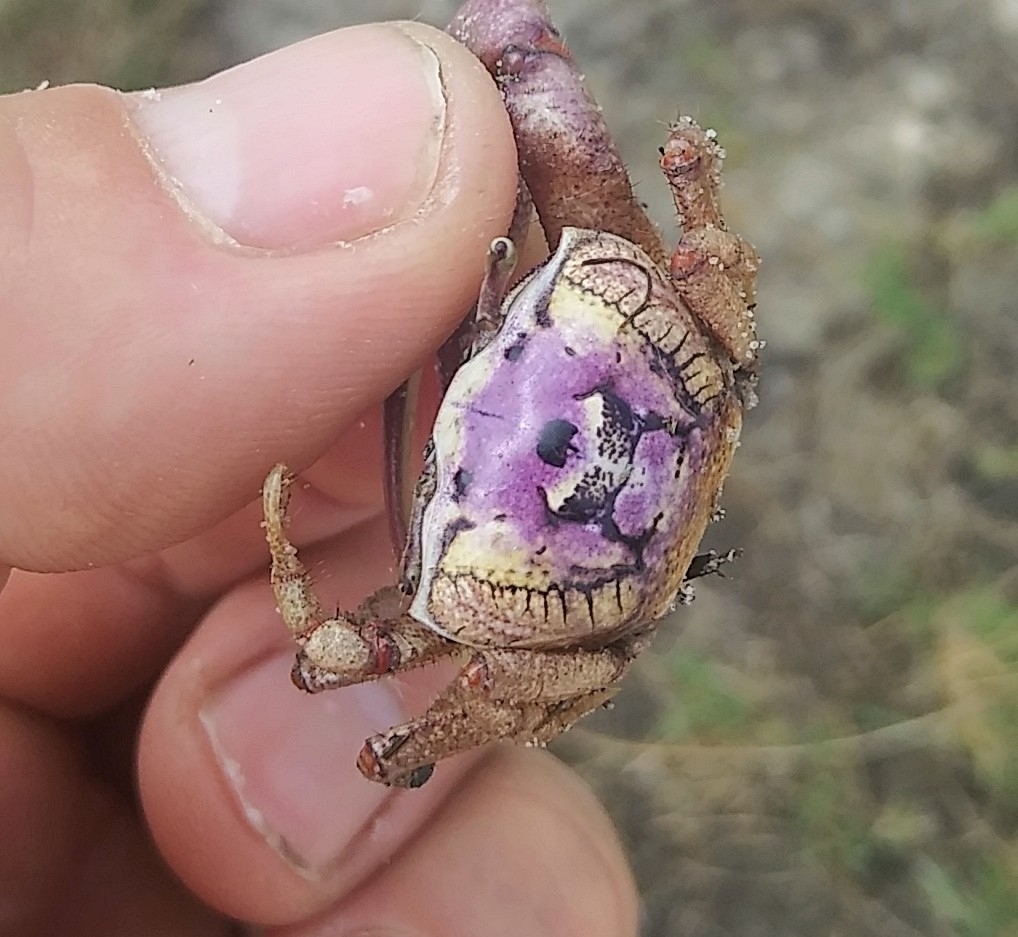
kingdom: Animalia
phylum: Arthropoda
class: Malacostraca
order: Decapoda
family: Ocypodidae
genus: Leptuca
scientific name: Leptuca pugilator
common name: Atlantic sand fiddler crab
